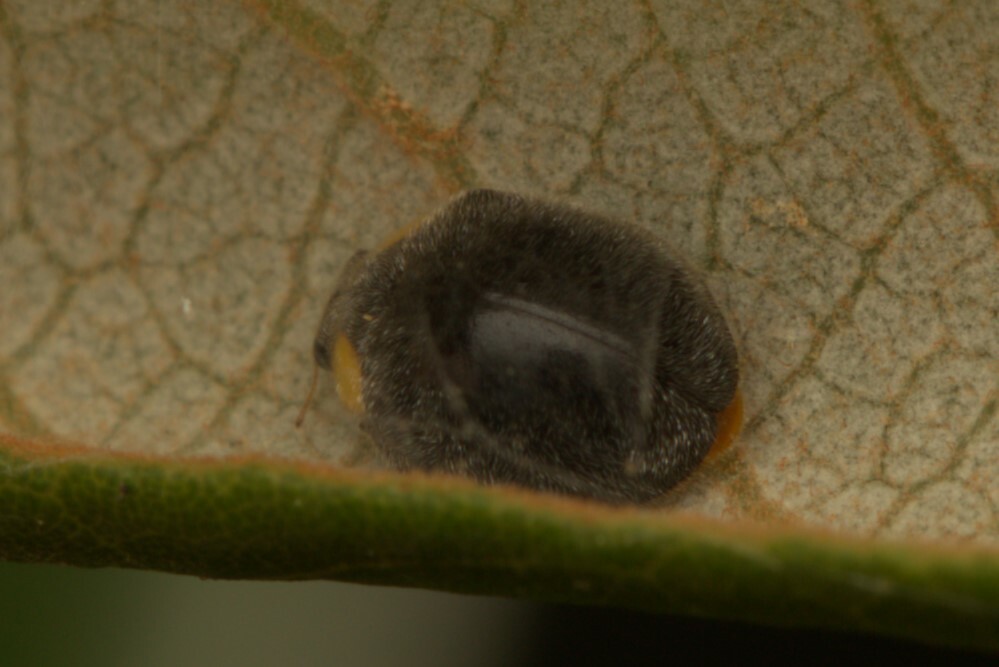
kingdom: Animalia
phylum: Arthropoda
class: Insecta
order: Coleoptera
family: Coccinellidae
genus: Scymnodes
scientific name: Scymnodes lividigaster
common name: Yellowshouldered lady beetle
